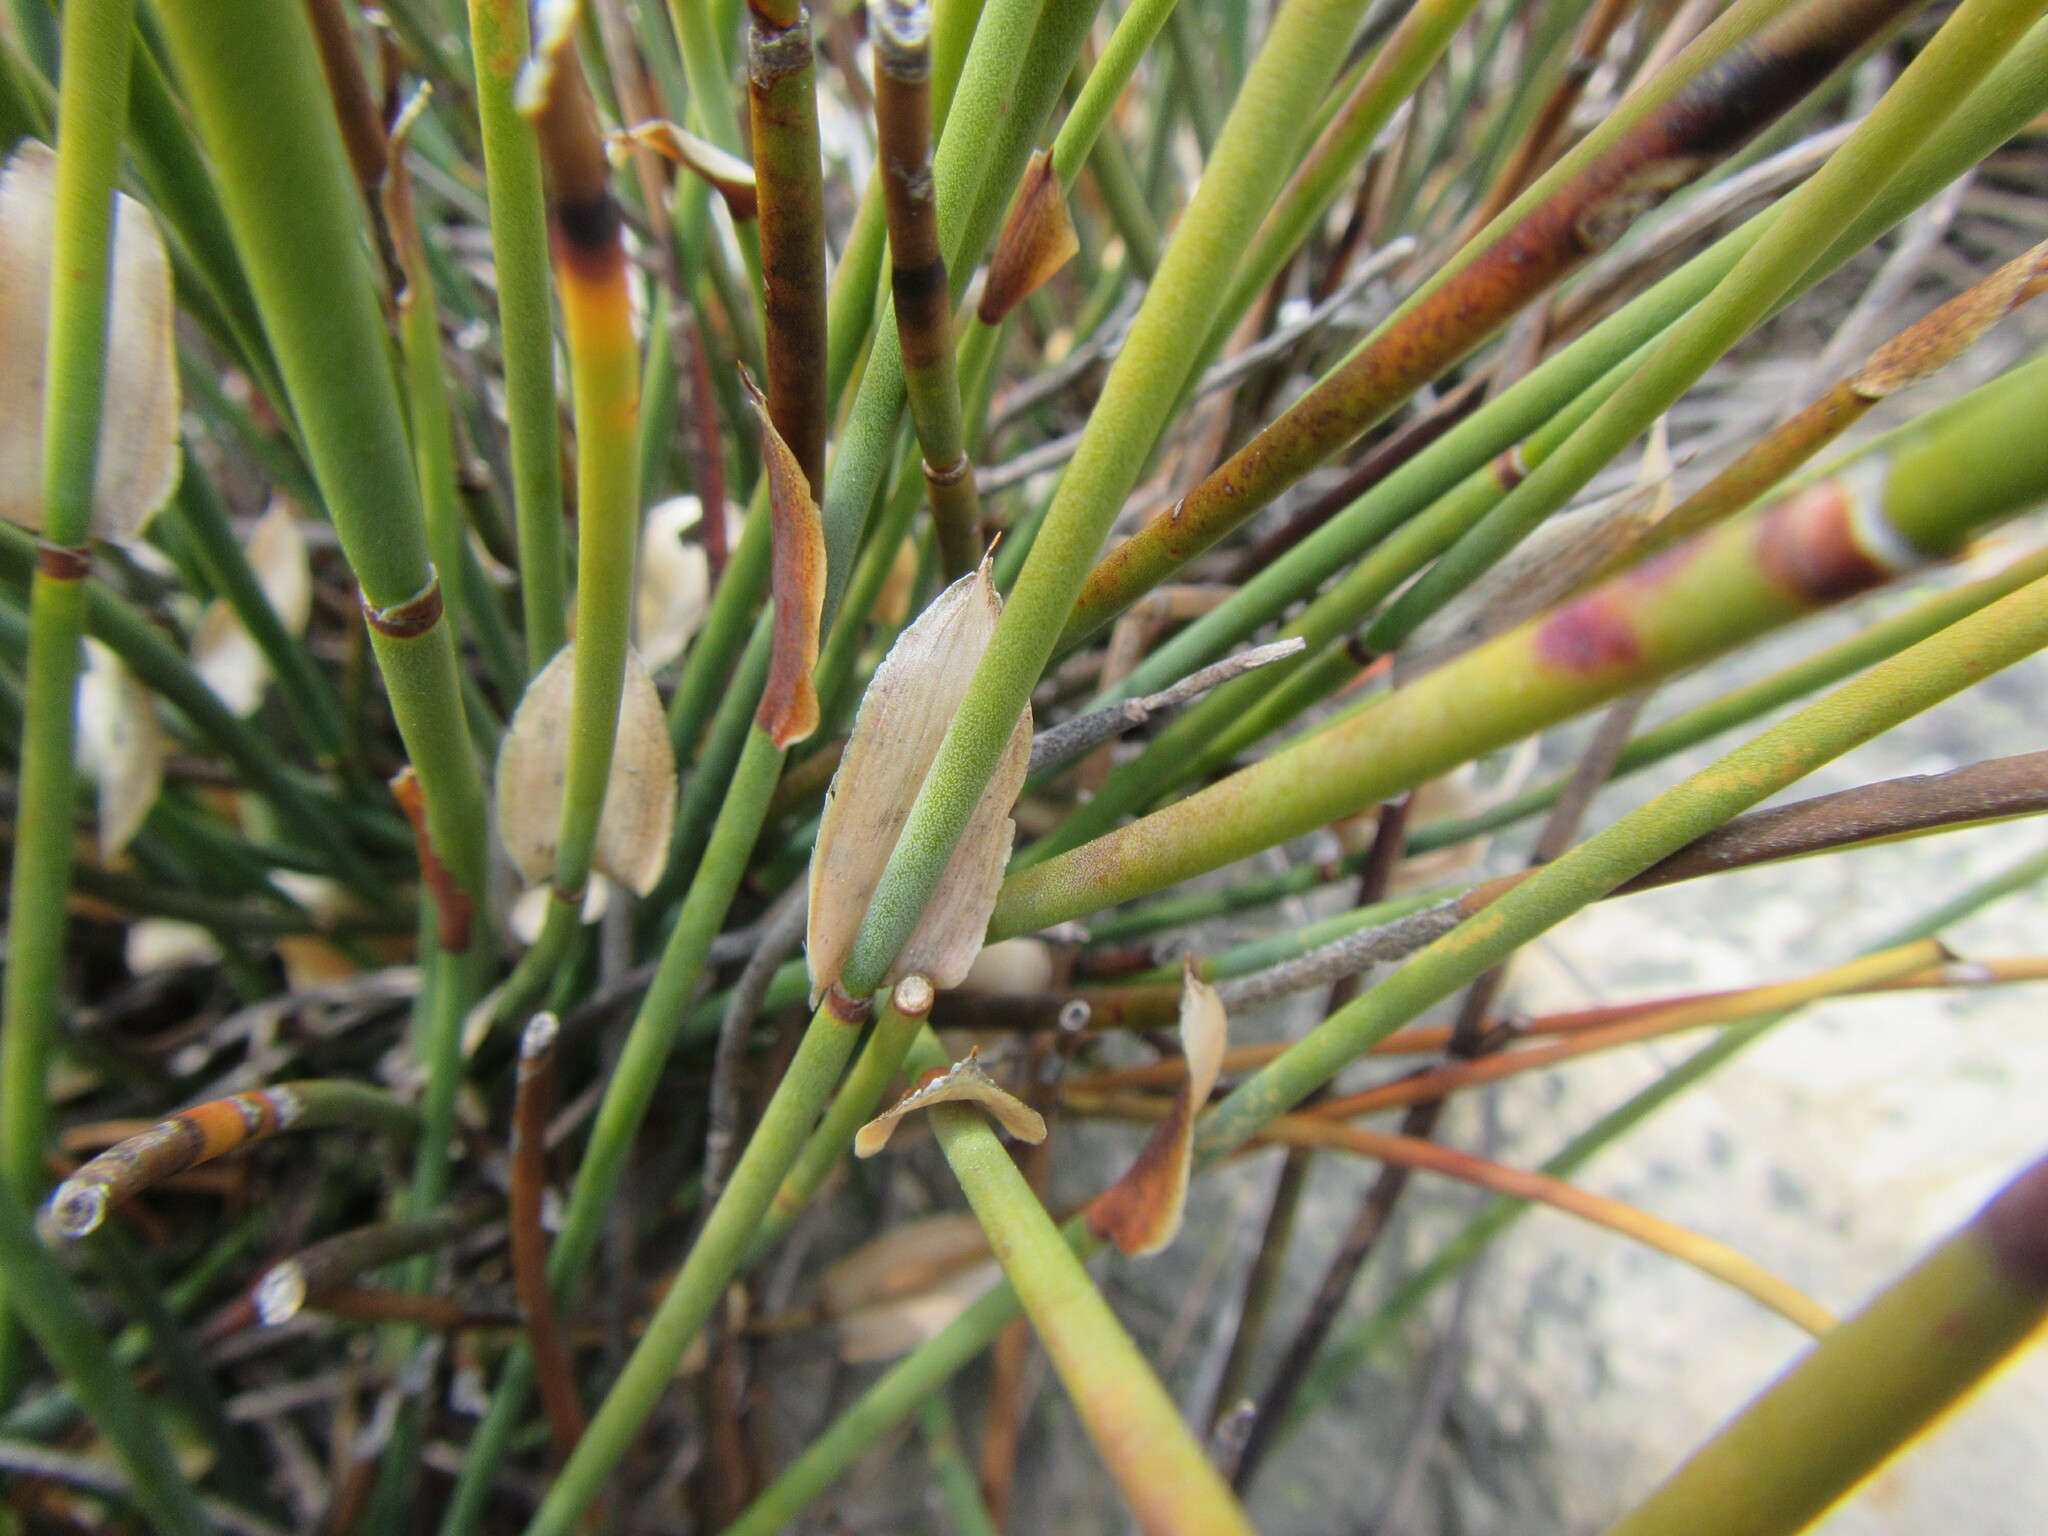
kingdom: Plantae
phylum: Tracheophyta
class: Liliopsida
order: Poales
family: Restionaceae
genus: Elegia
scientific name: Elegia esterhuyseniae
